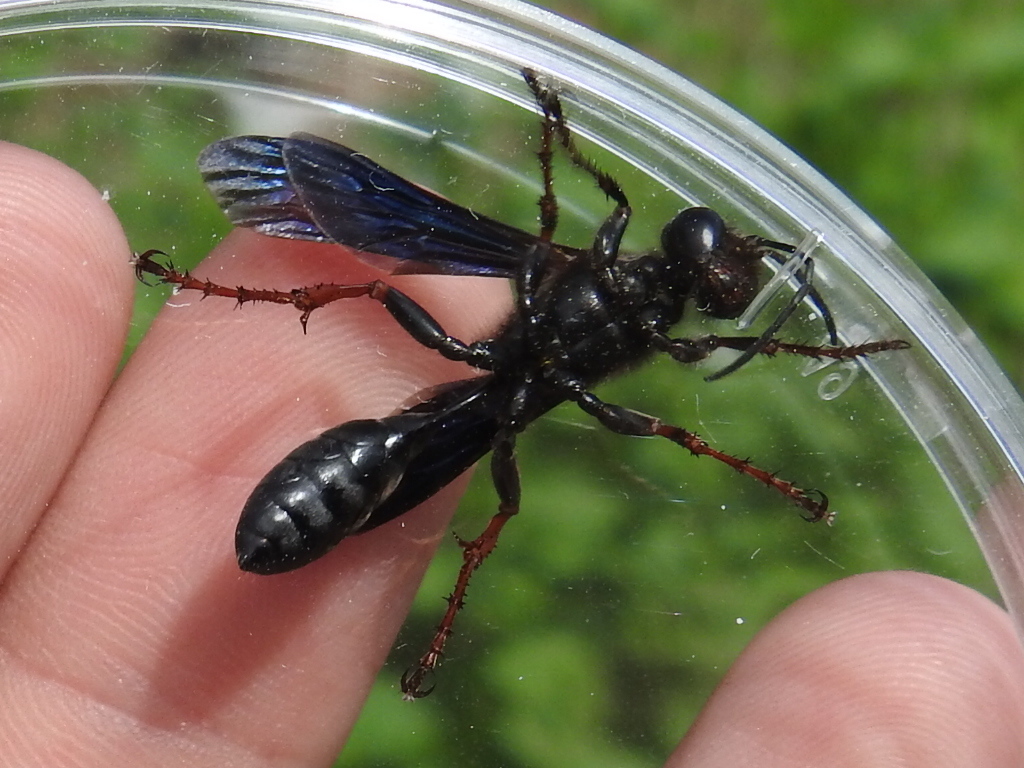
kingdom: Animalia
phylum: Arthropoda
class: Insecta
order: Hymenoptera
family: Sphecidae
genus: Isodontia
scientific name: Isodontia auripes
